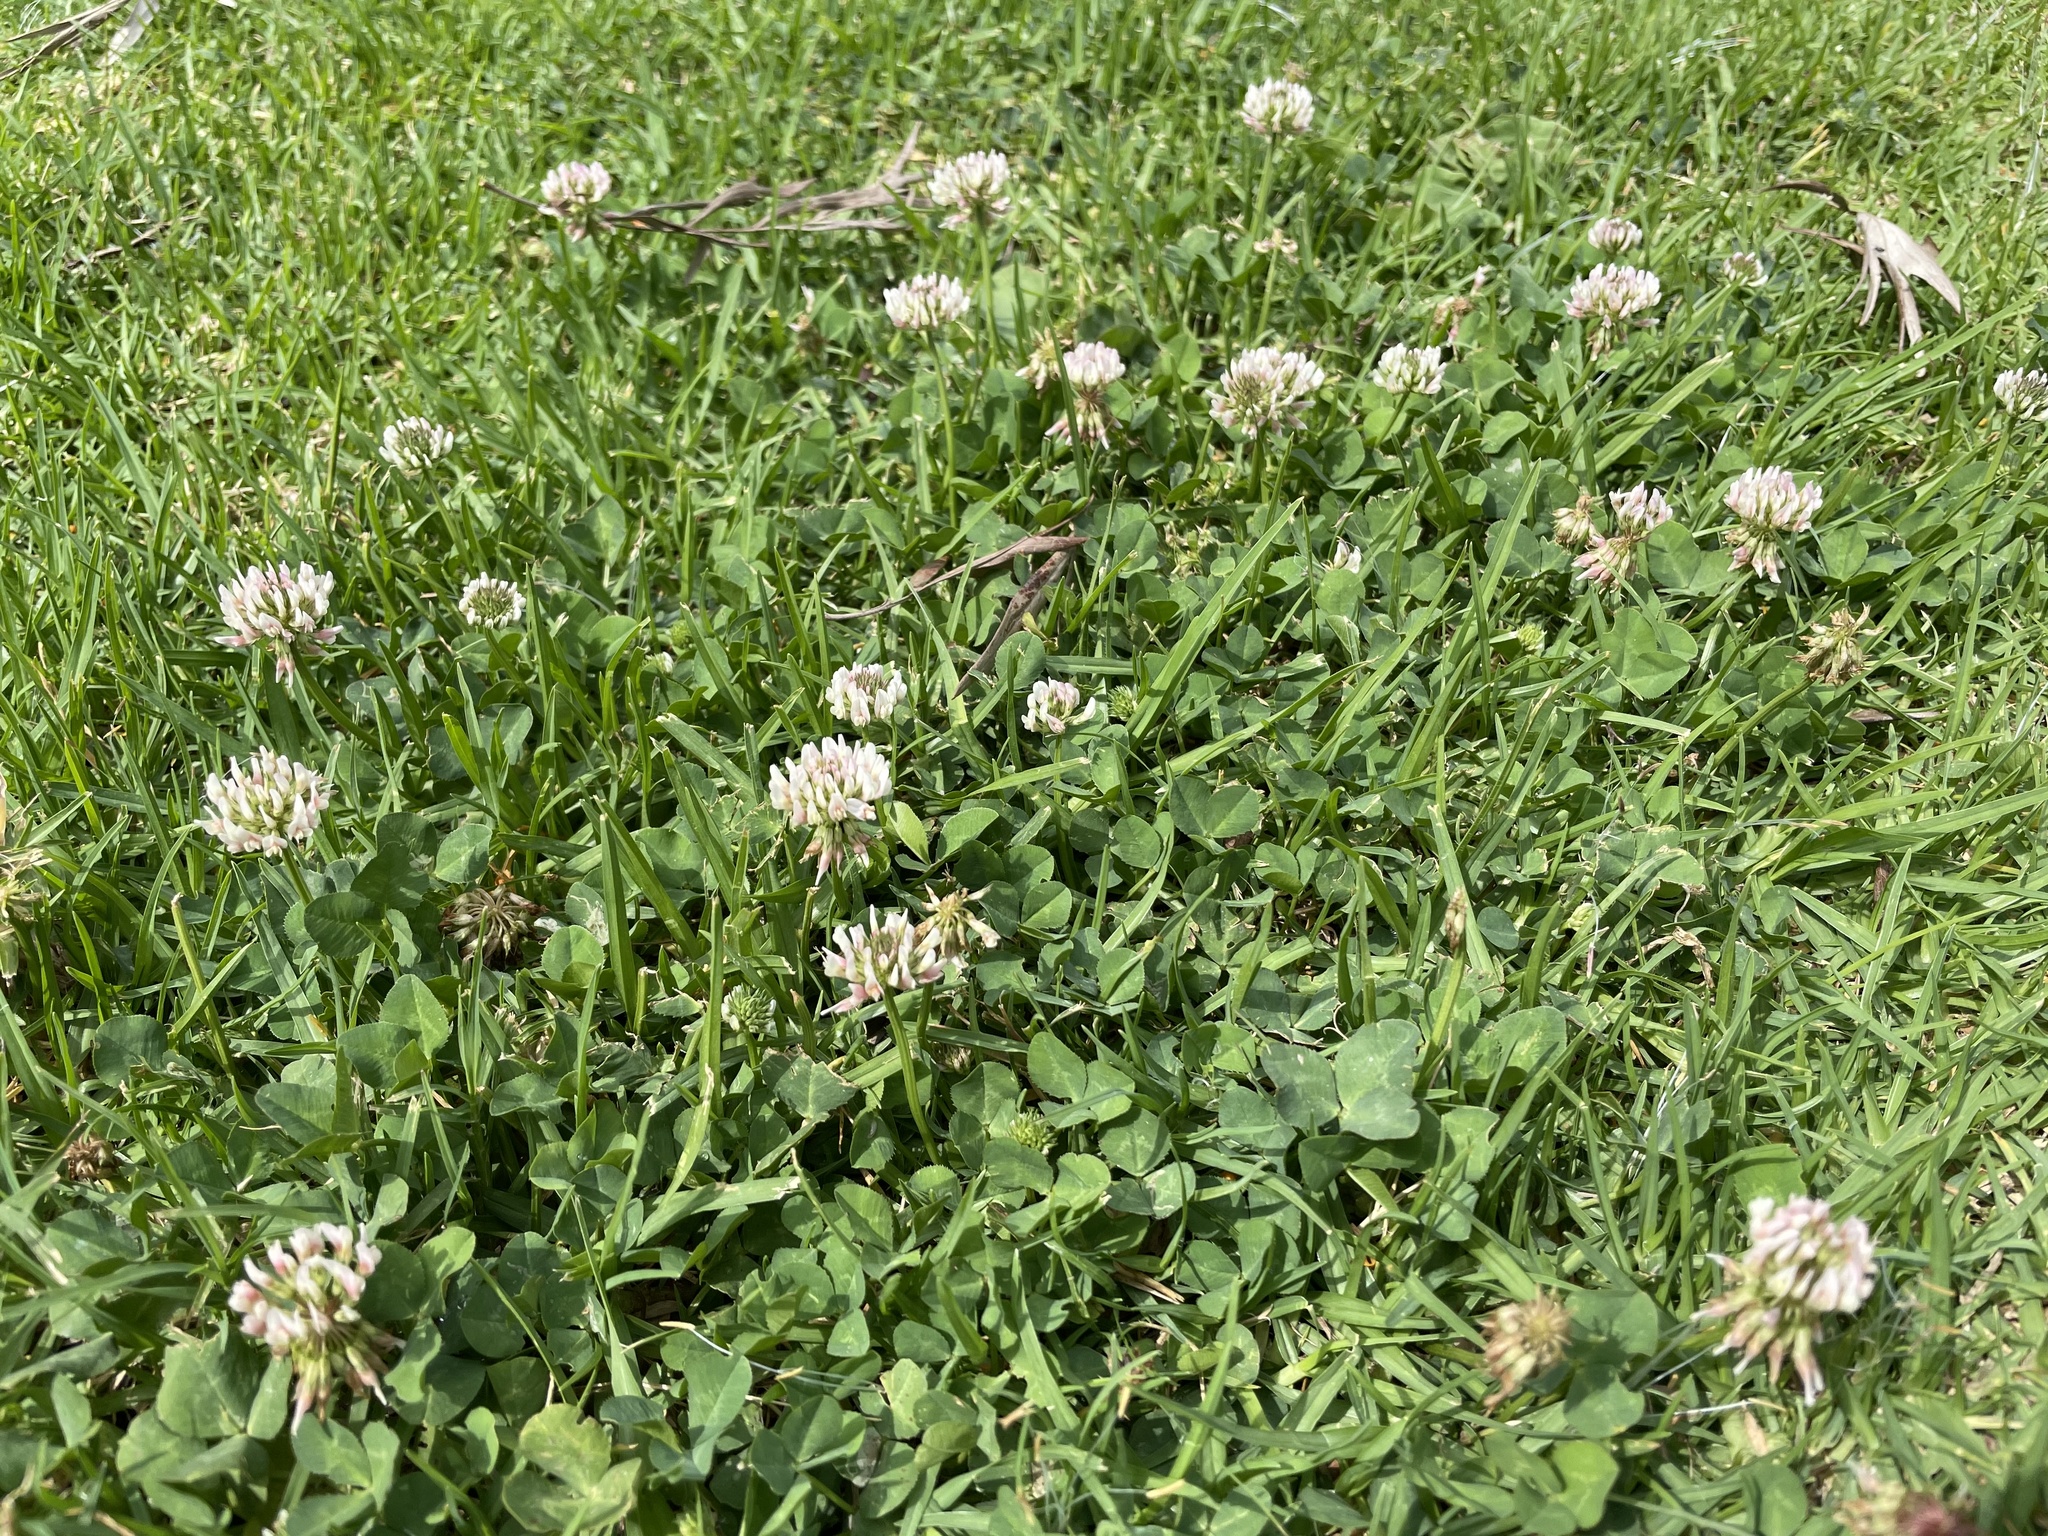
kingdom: Plantae
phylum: Tracheophyta
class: Magnoliopsida
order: Fabales
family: Fabaceae
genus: Trifolium
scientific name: Trifolium repens
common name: White clover
